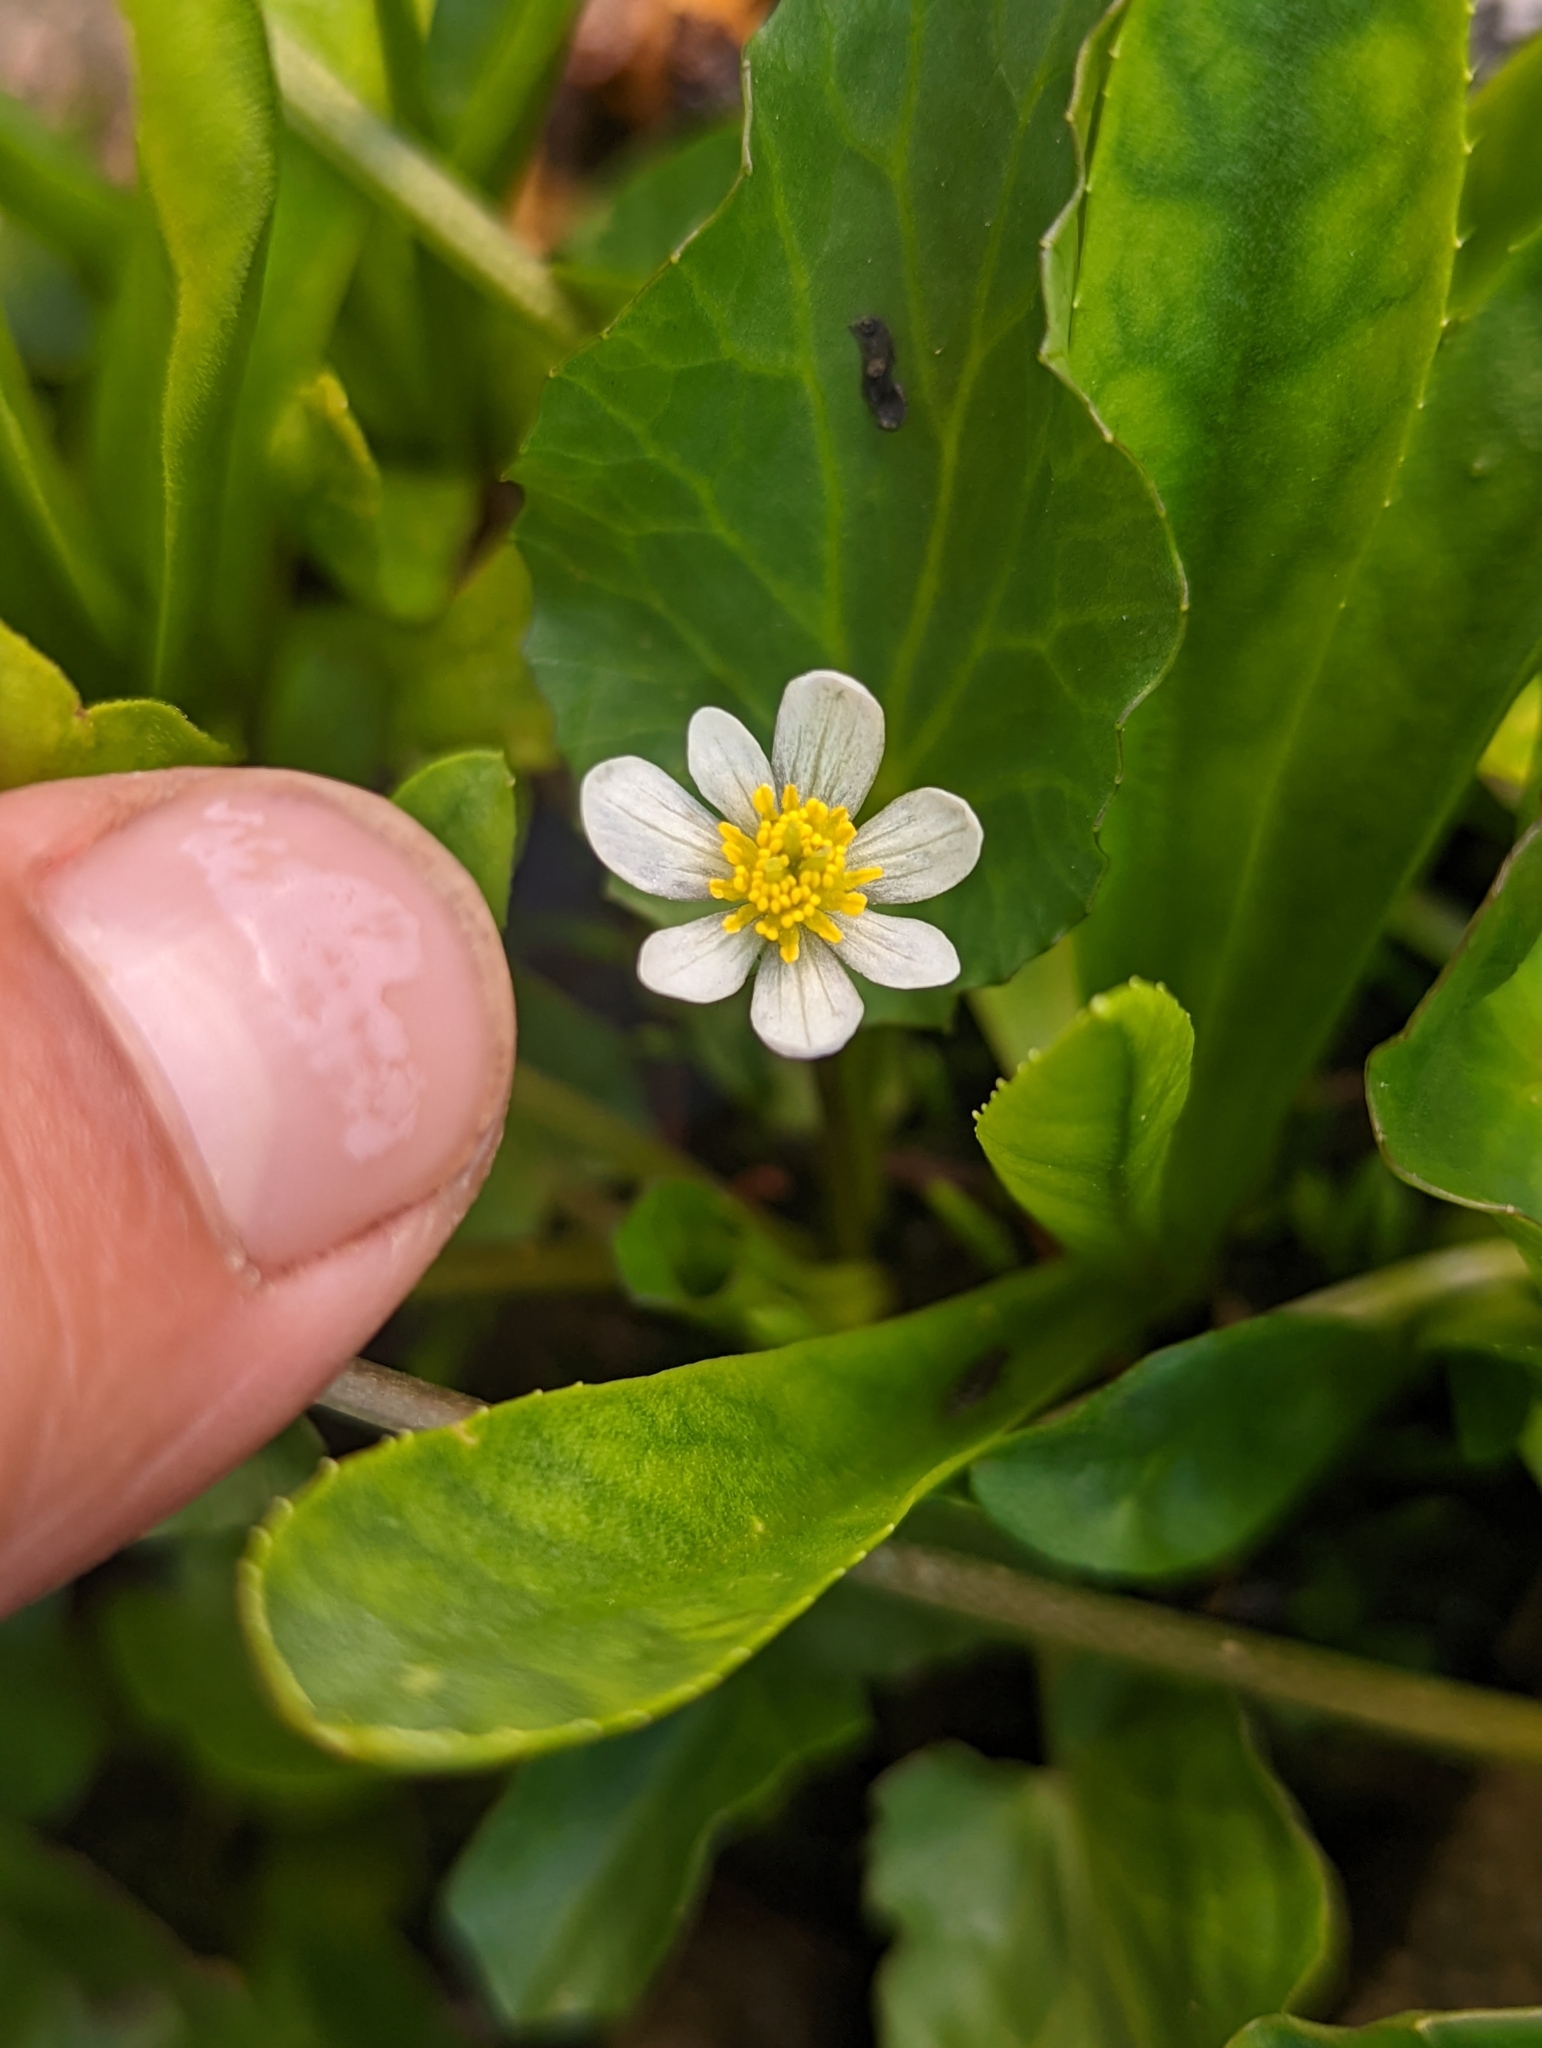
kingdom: Plantae
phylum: Tracheophyta
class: Magnoliopsida
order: Ranunculales
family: Ranunculaceae
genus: Caltha
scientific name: Caltha leptosepala
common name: Elkslip
